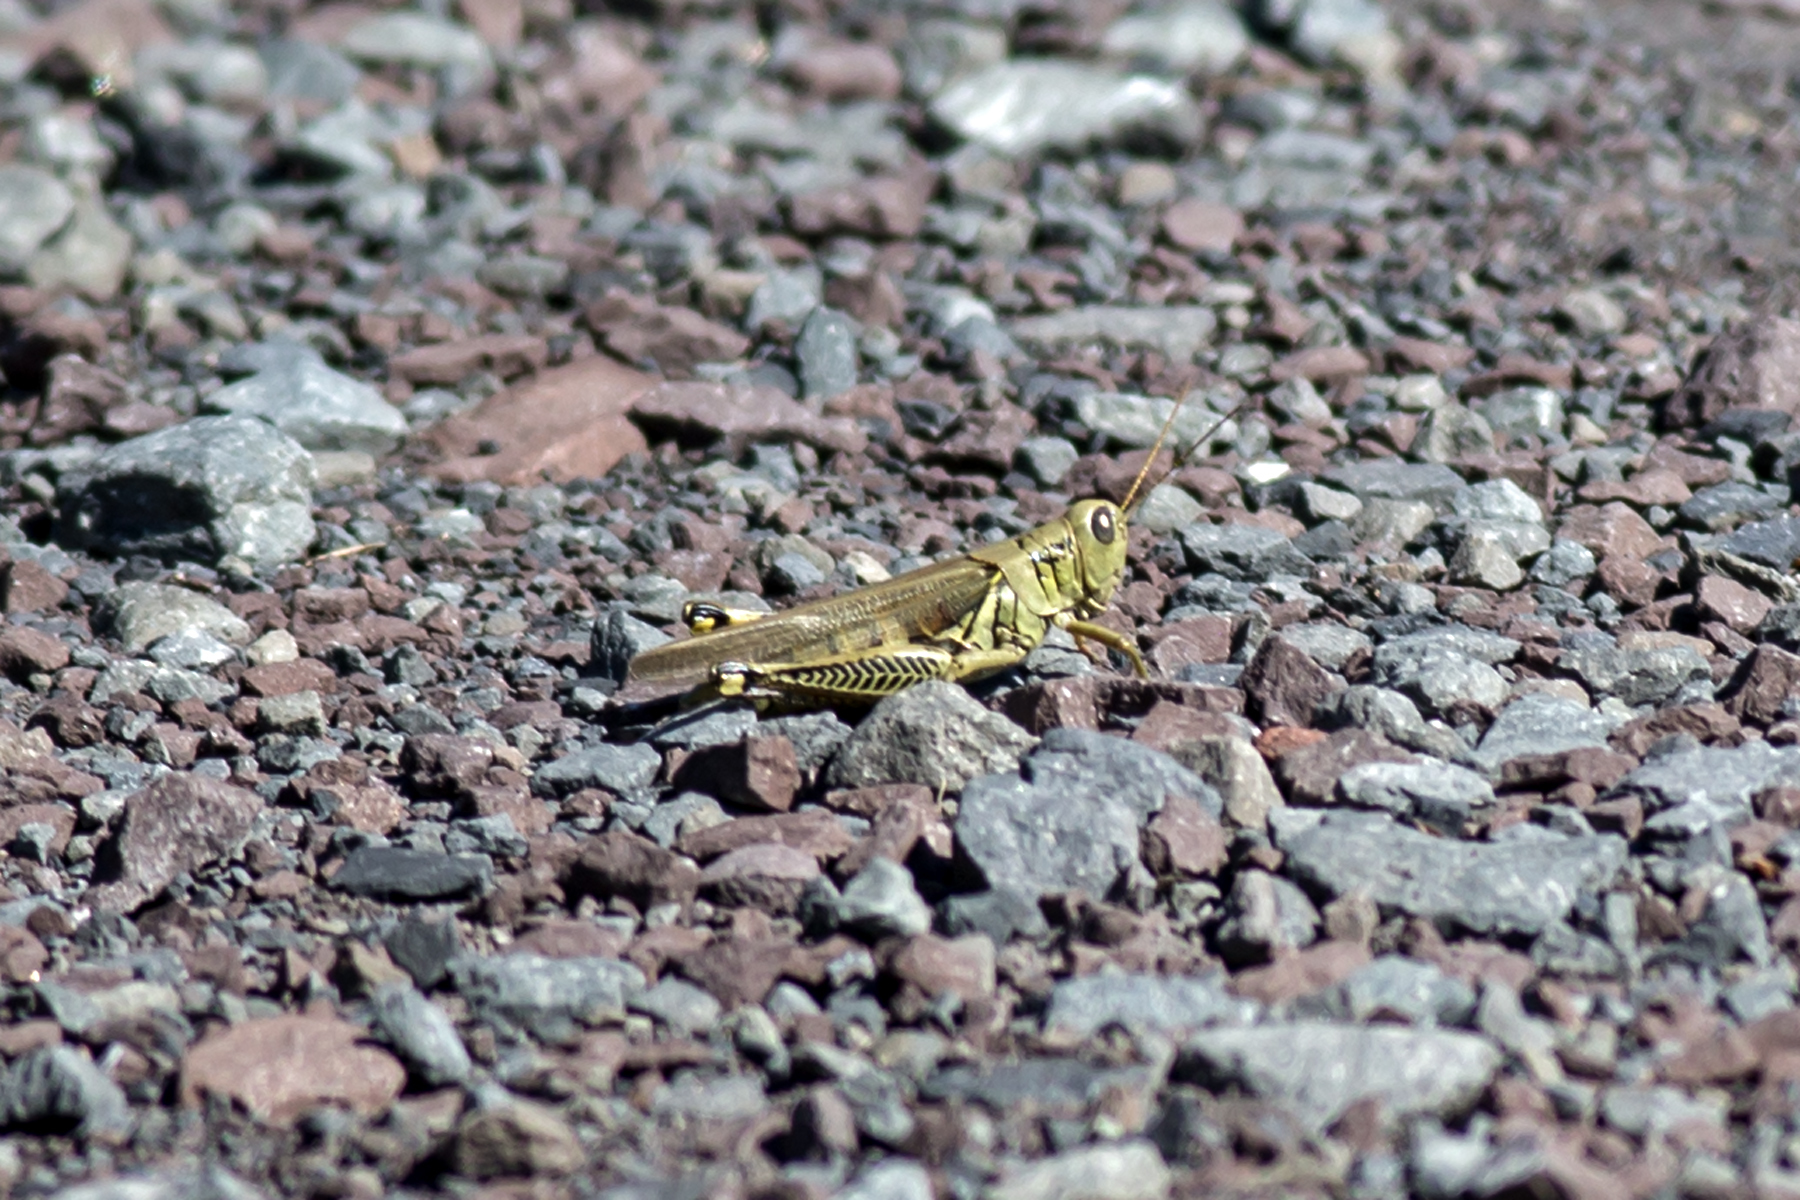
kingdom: Animalia
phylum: Arthropoda
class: Insecta
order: Orthoptera
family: Acrididae
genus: Melanoplus
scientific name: Melanoplus differentialis
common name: Differential grasshopper
